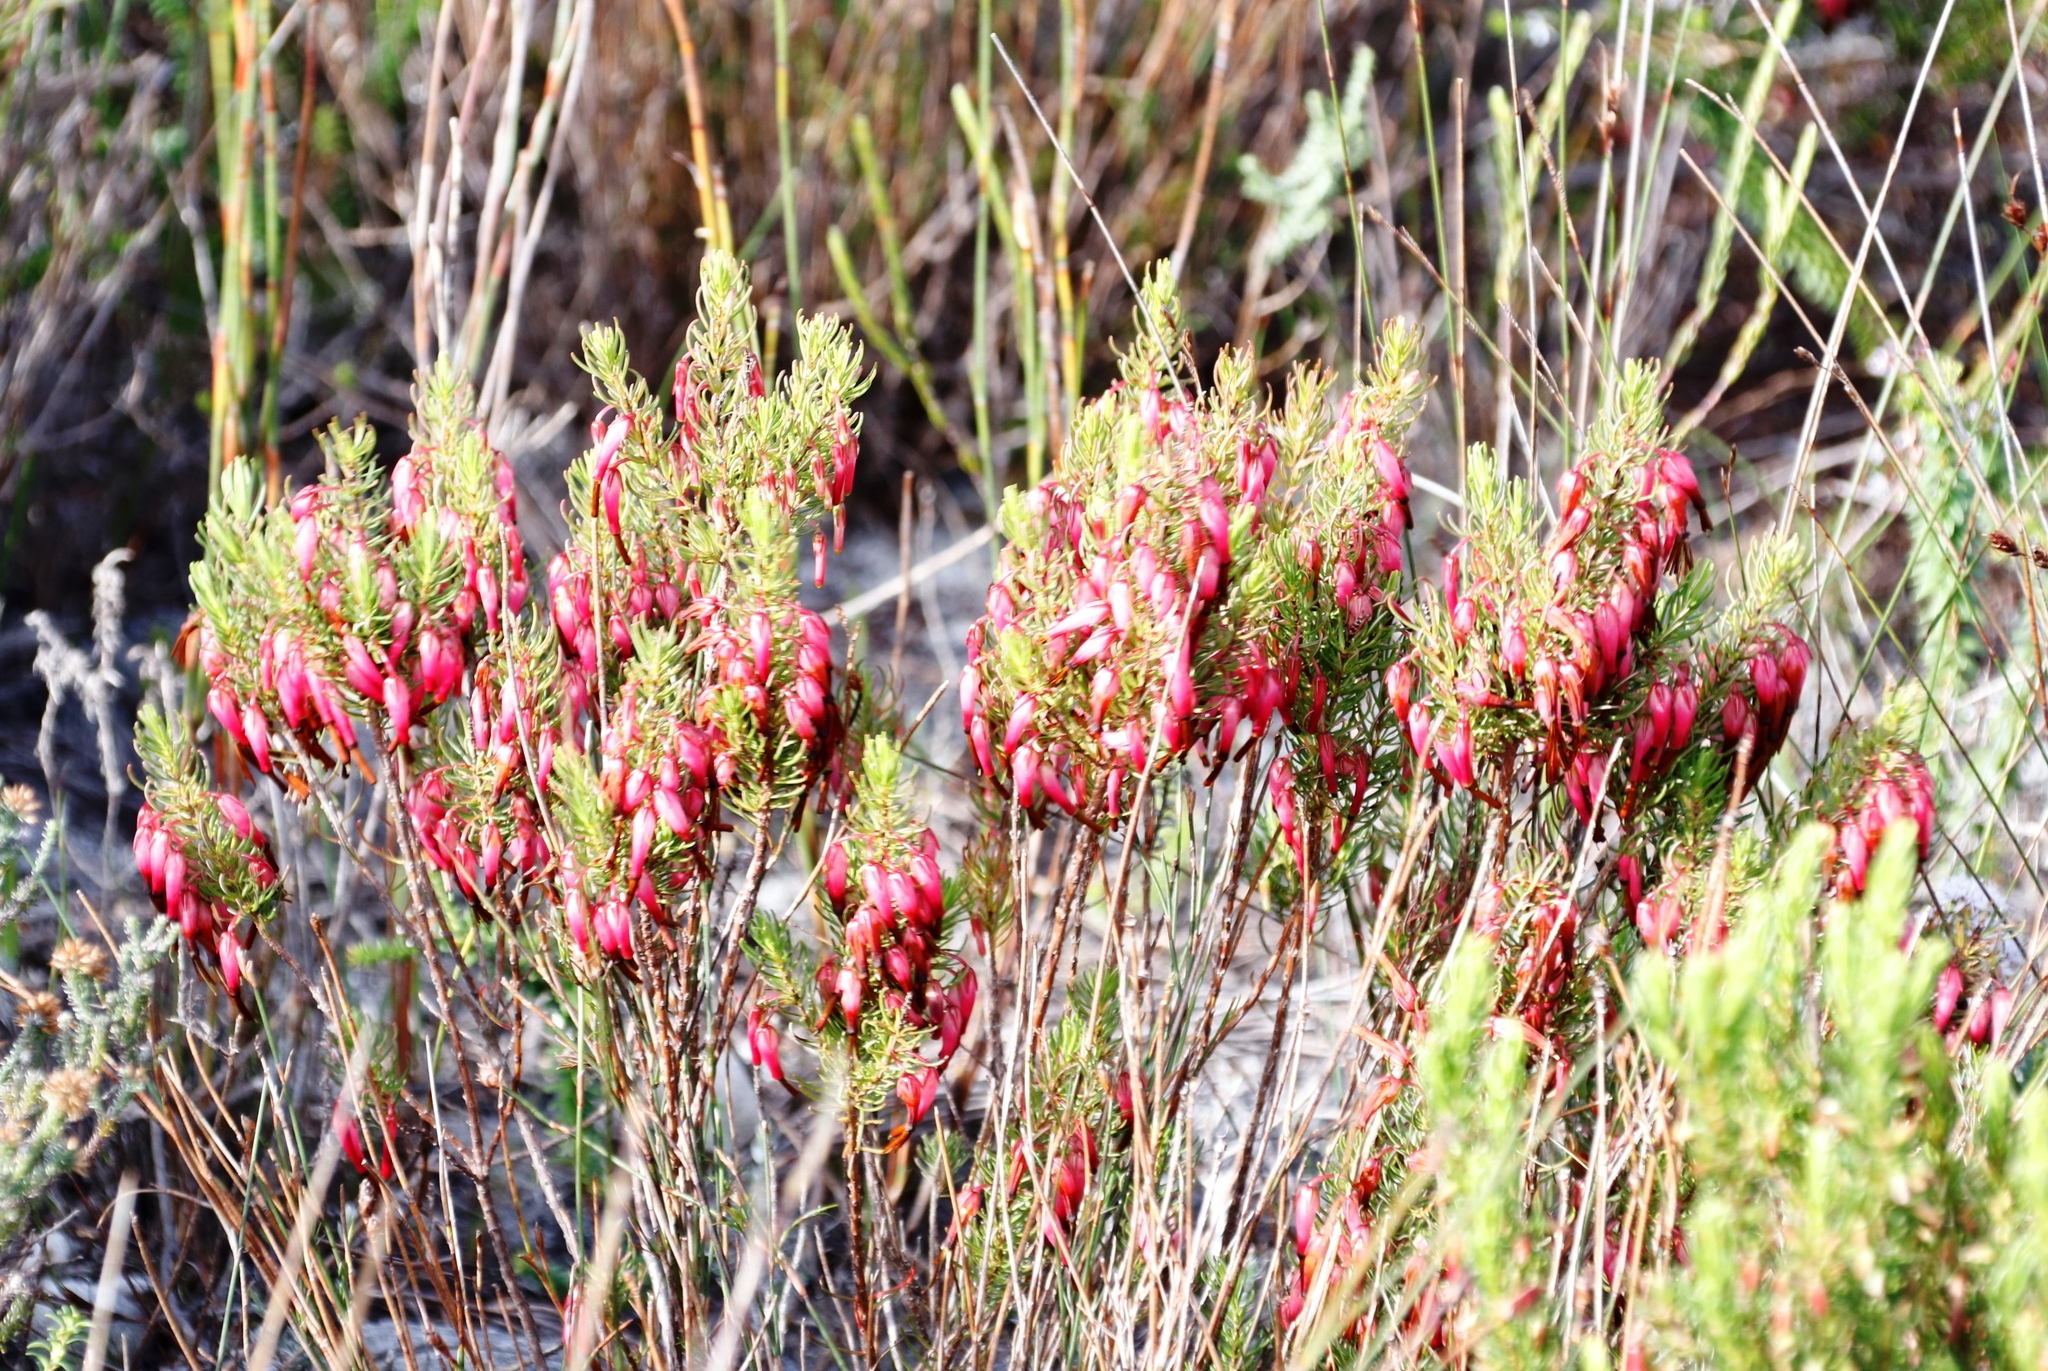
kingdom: Plantae
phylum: Tracheophyta
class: Magnoliopsida
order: Ericales
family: Ericaceae
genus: Erica
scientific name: Erica plukenetii
